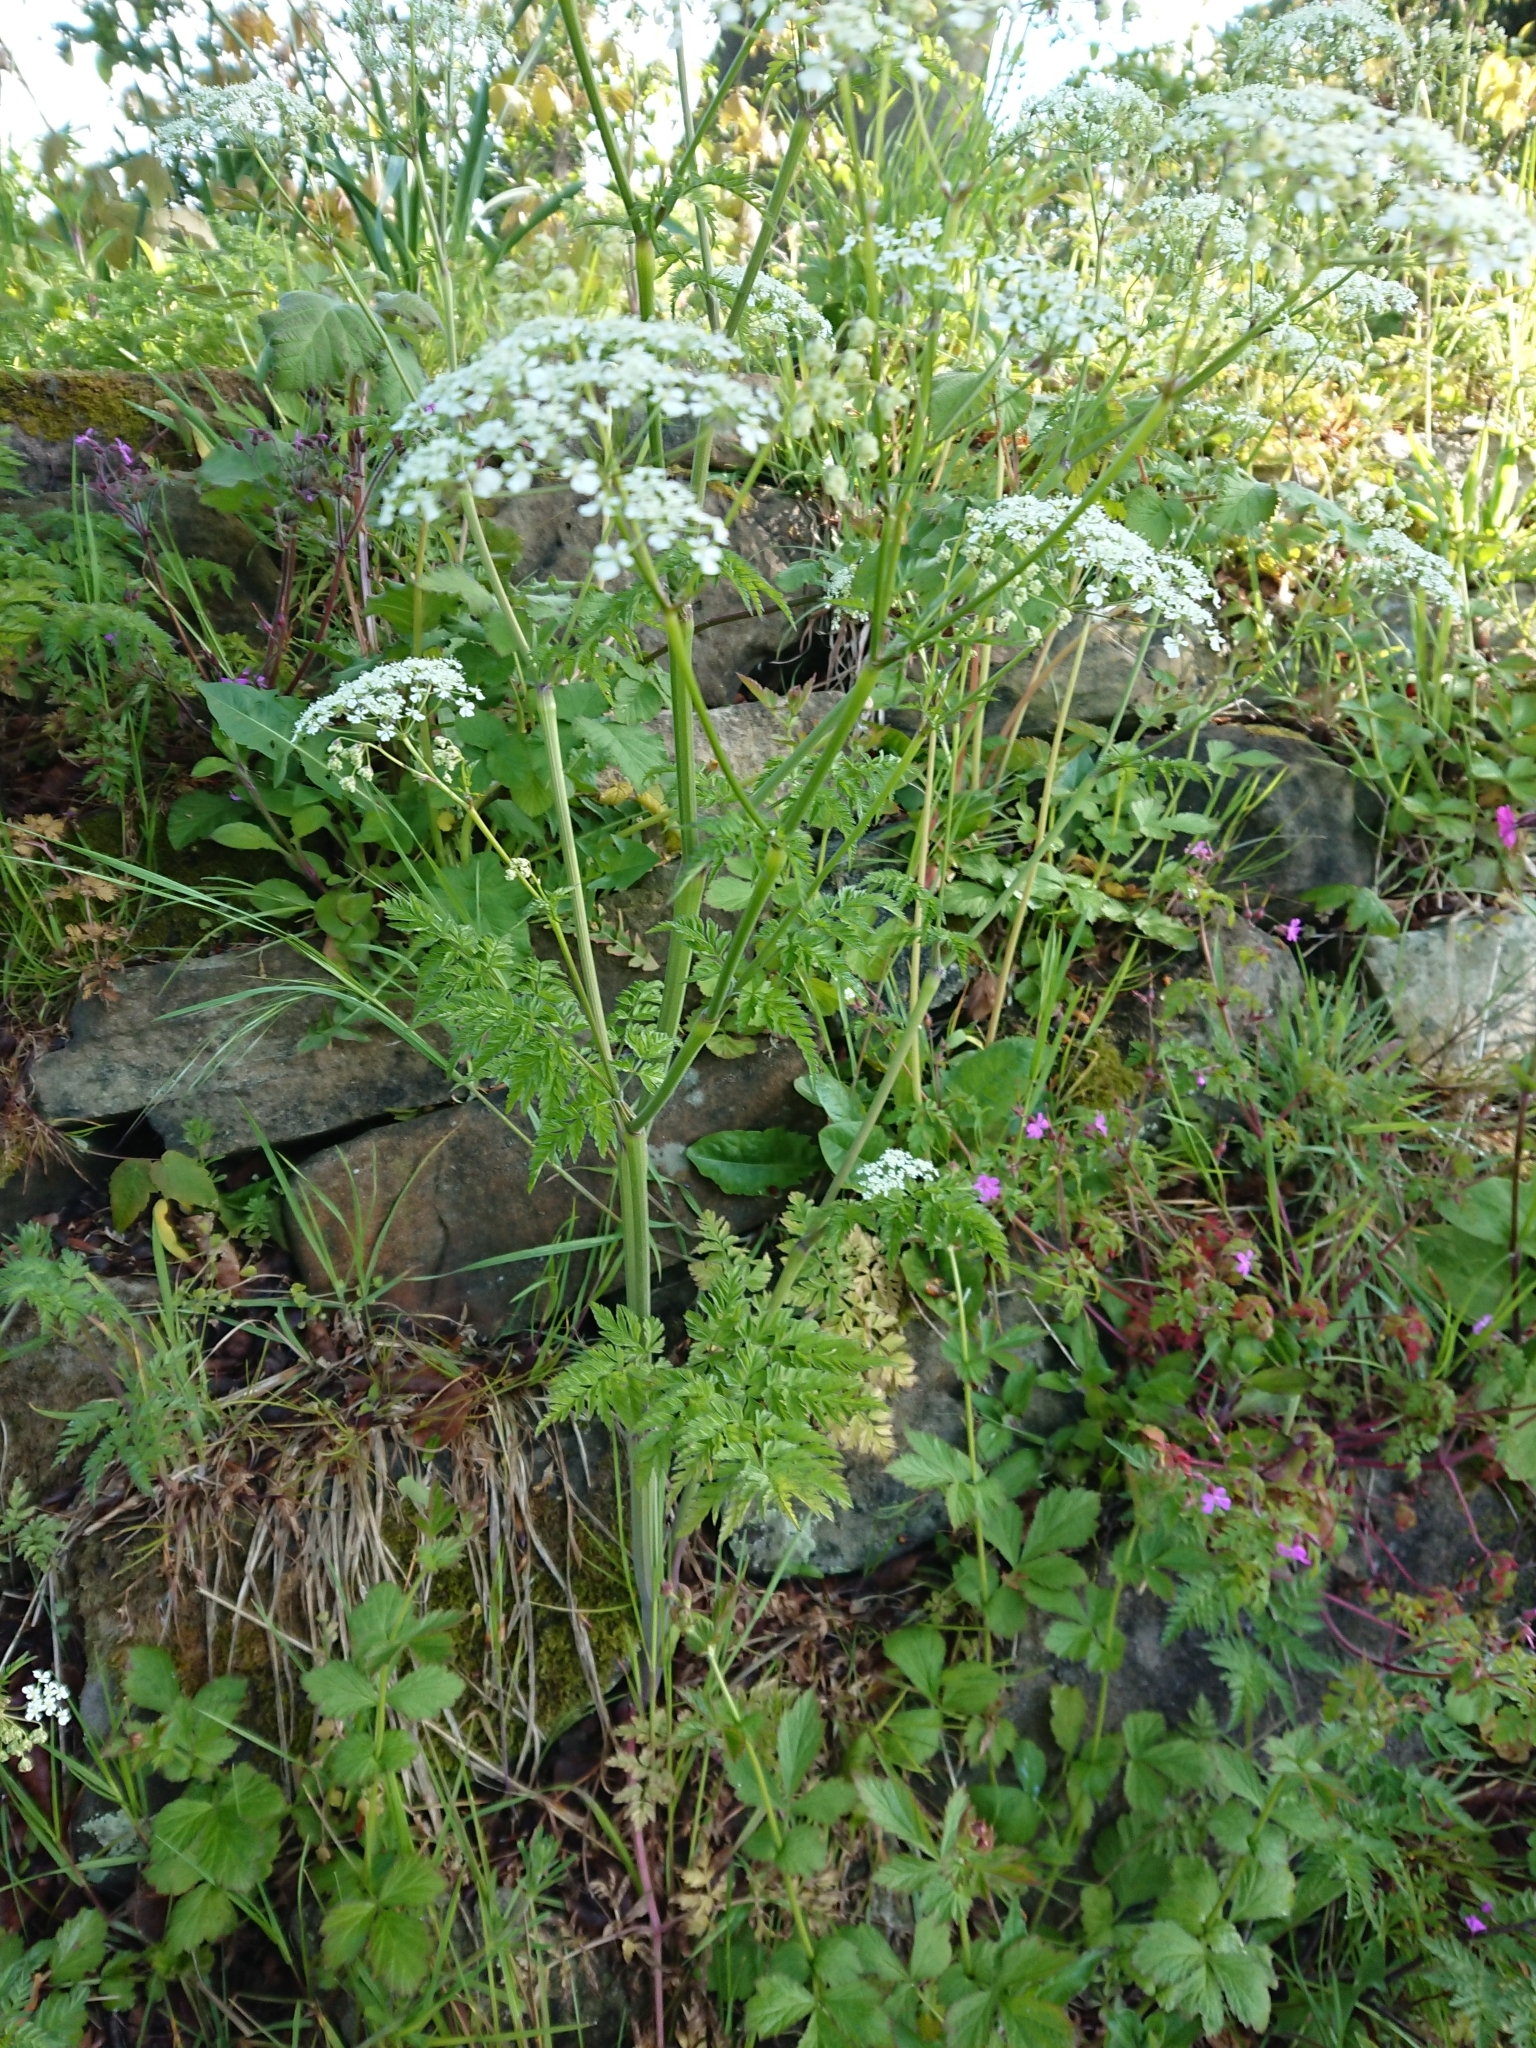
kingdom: Plantae
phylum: Tracheophyta
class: Magnoliopsida
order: Apiales
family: Apiaceae
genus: Anthriscus
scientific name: Anthriscus sylvestris
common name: Cow parsley
